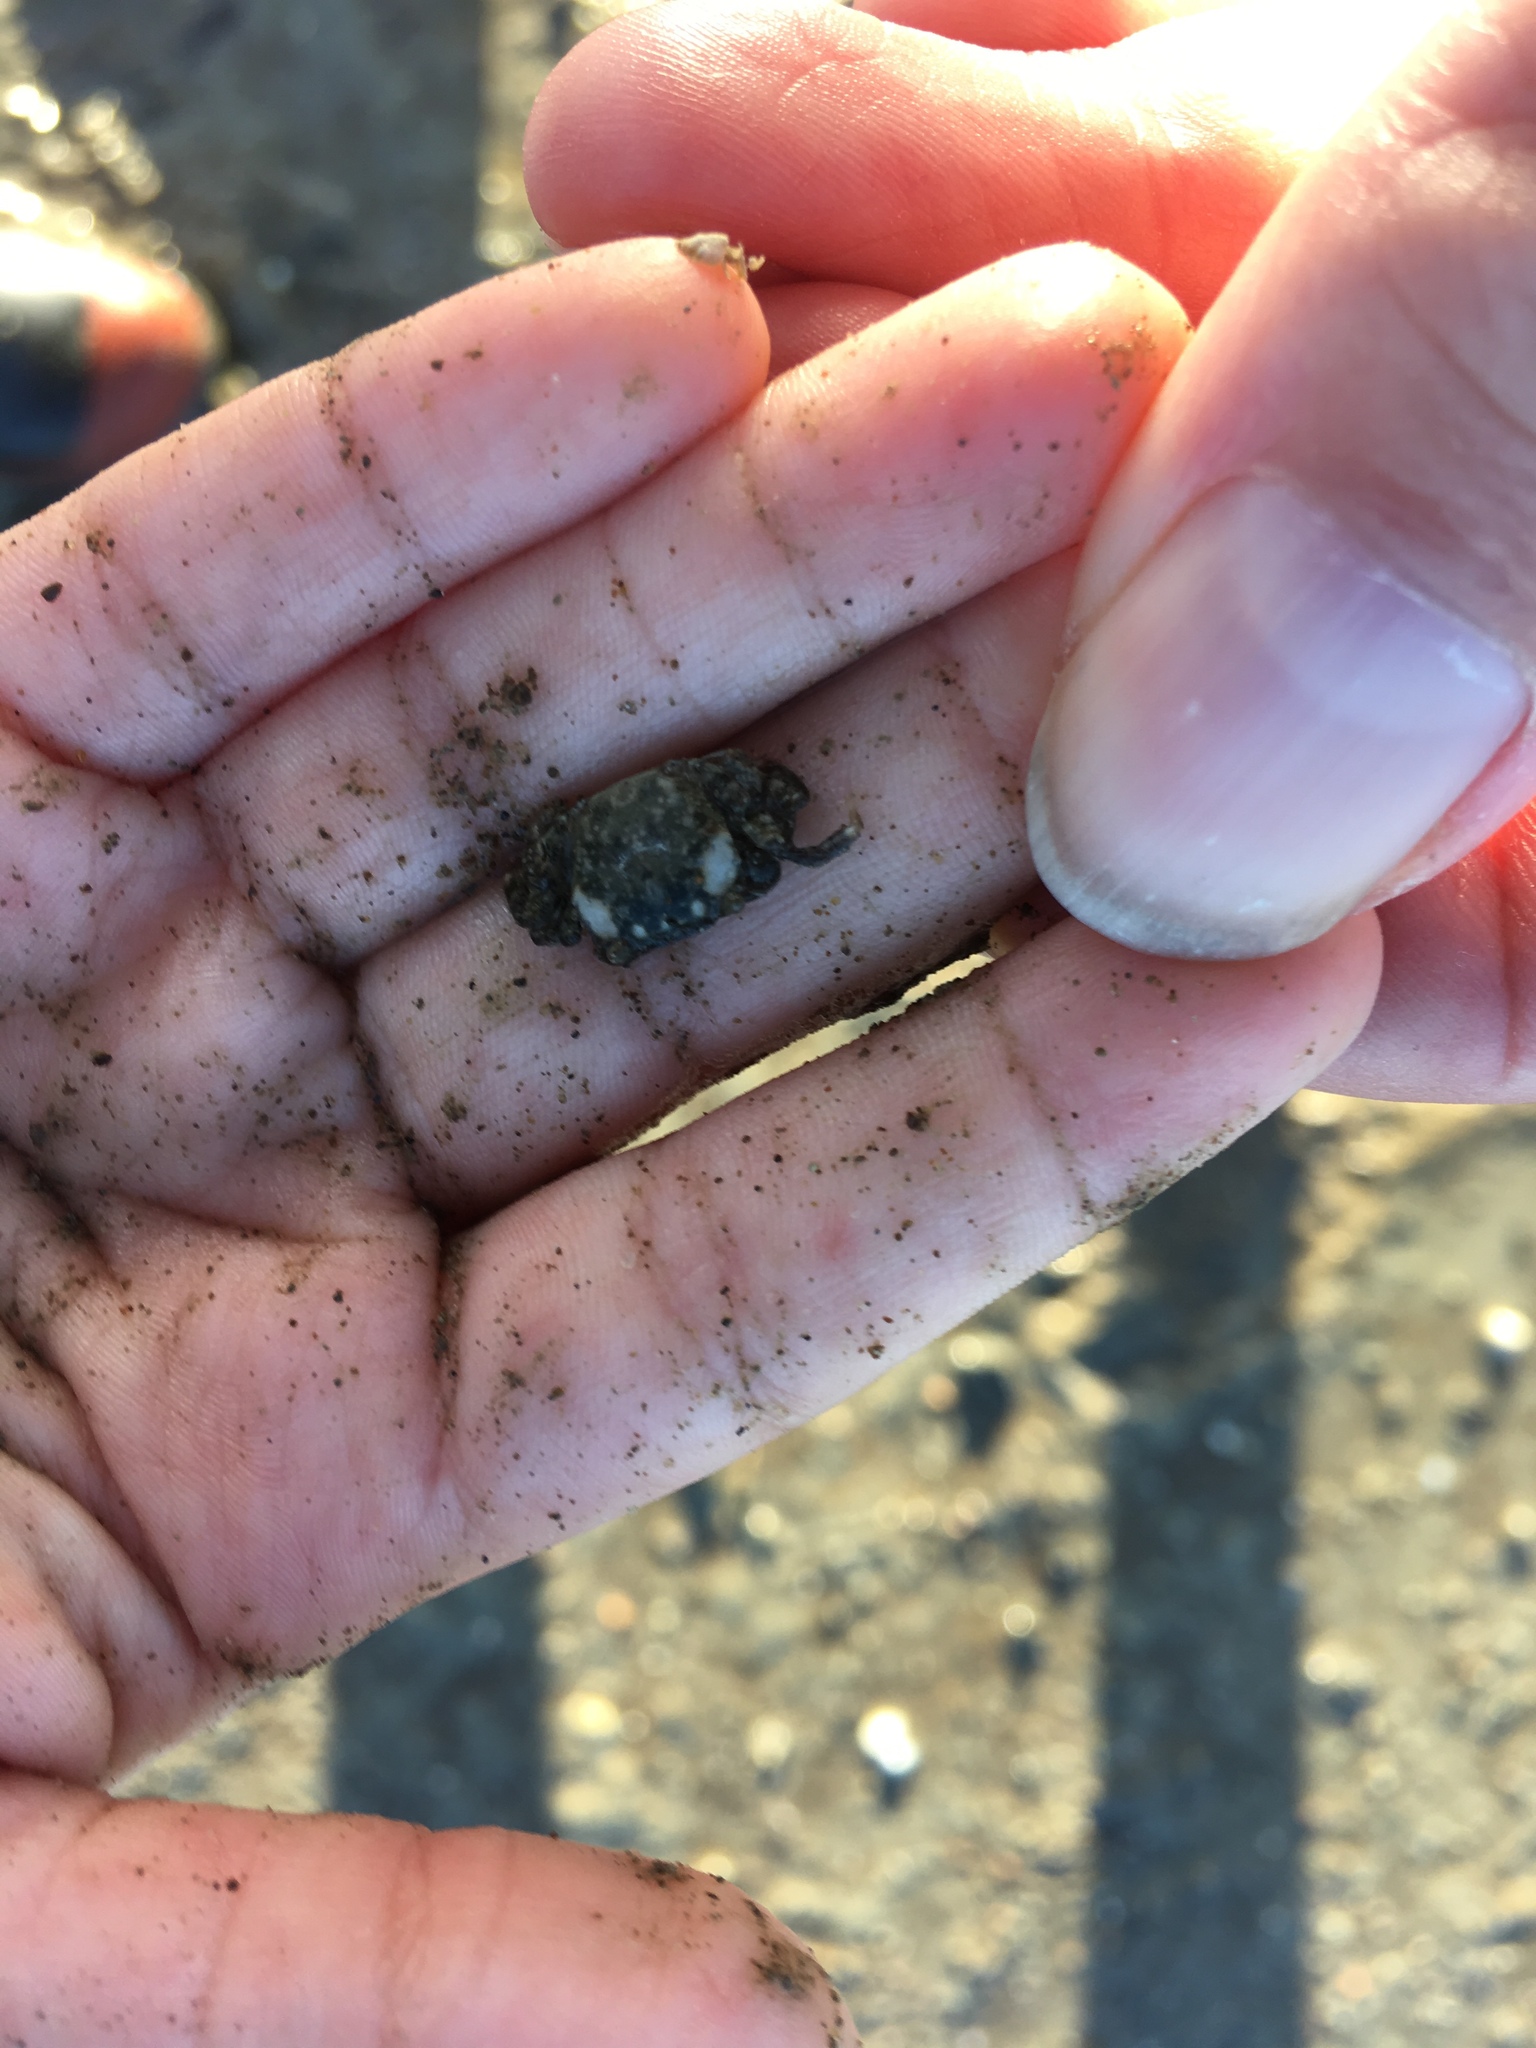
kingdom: Animalia
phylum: Arthropoda
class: Malacostraca
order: Decapoda
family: Varunidae
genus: Hemigrapsus
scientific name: Hemigrapsus crenulatus
